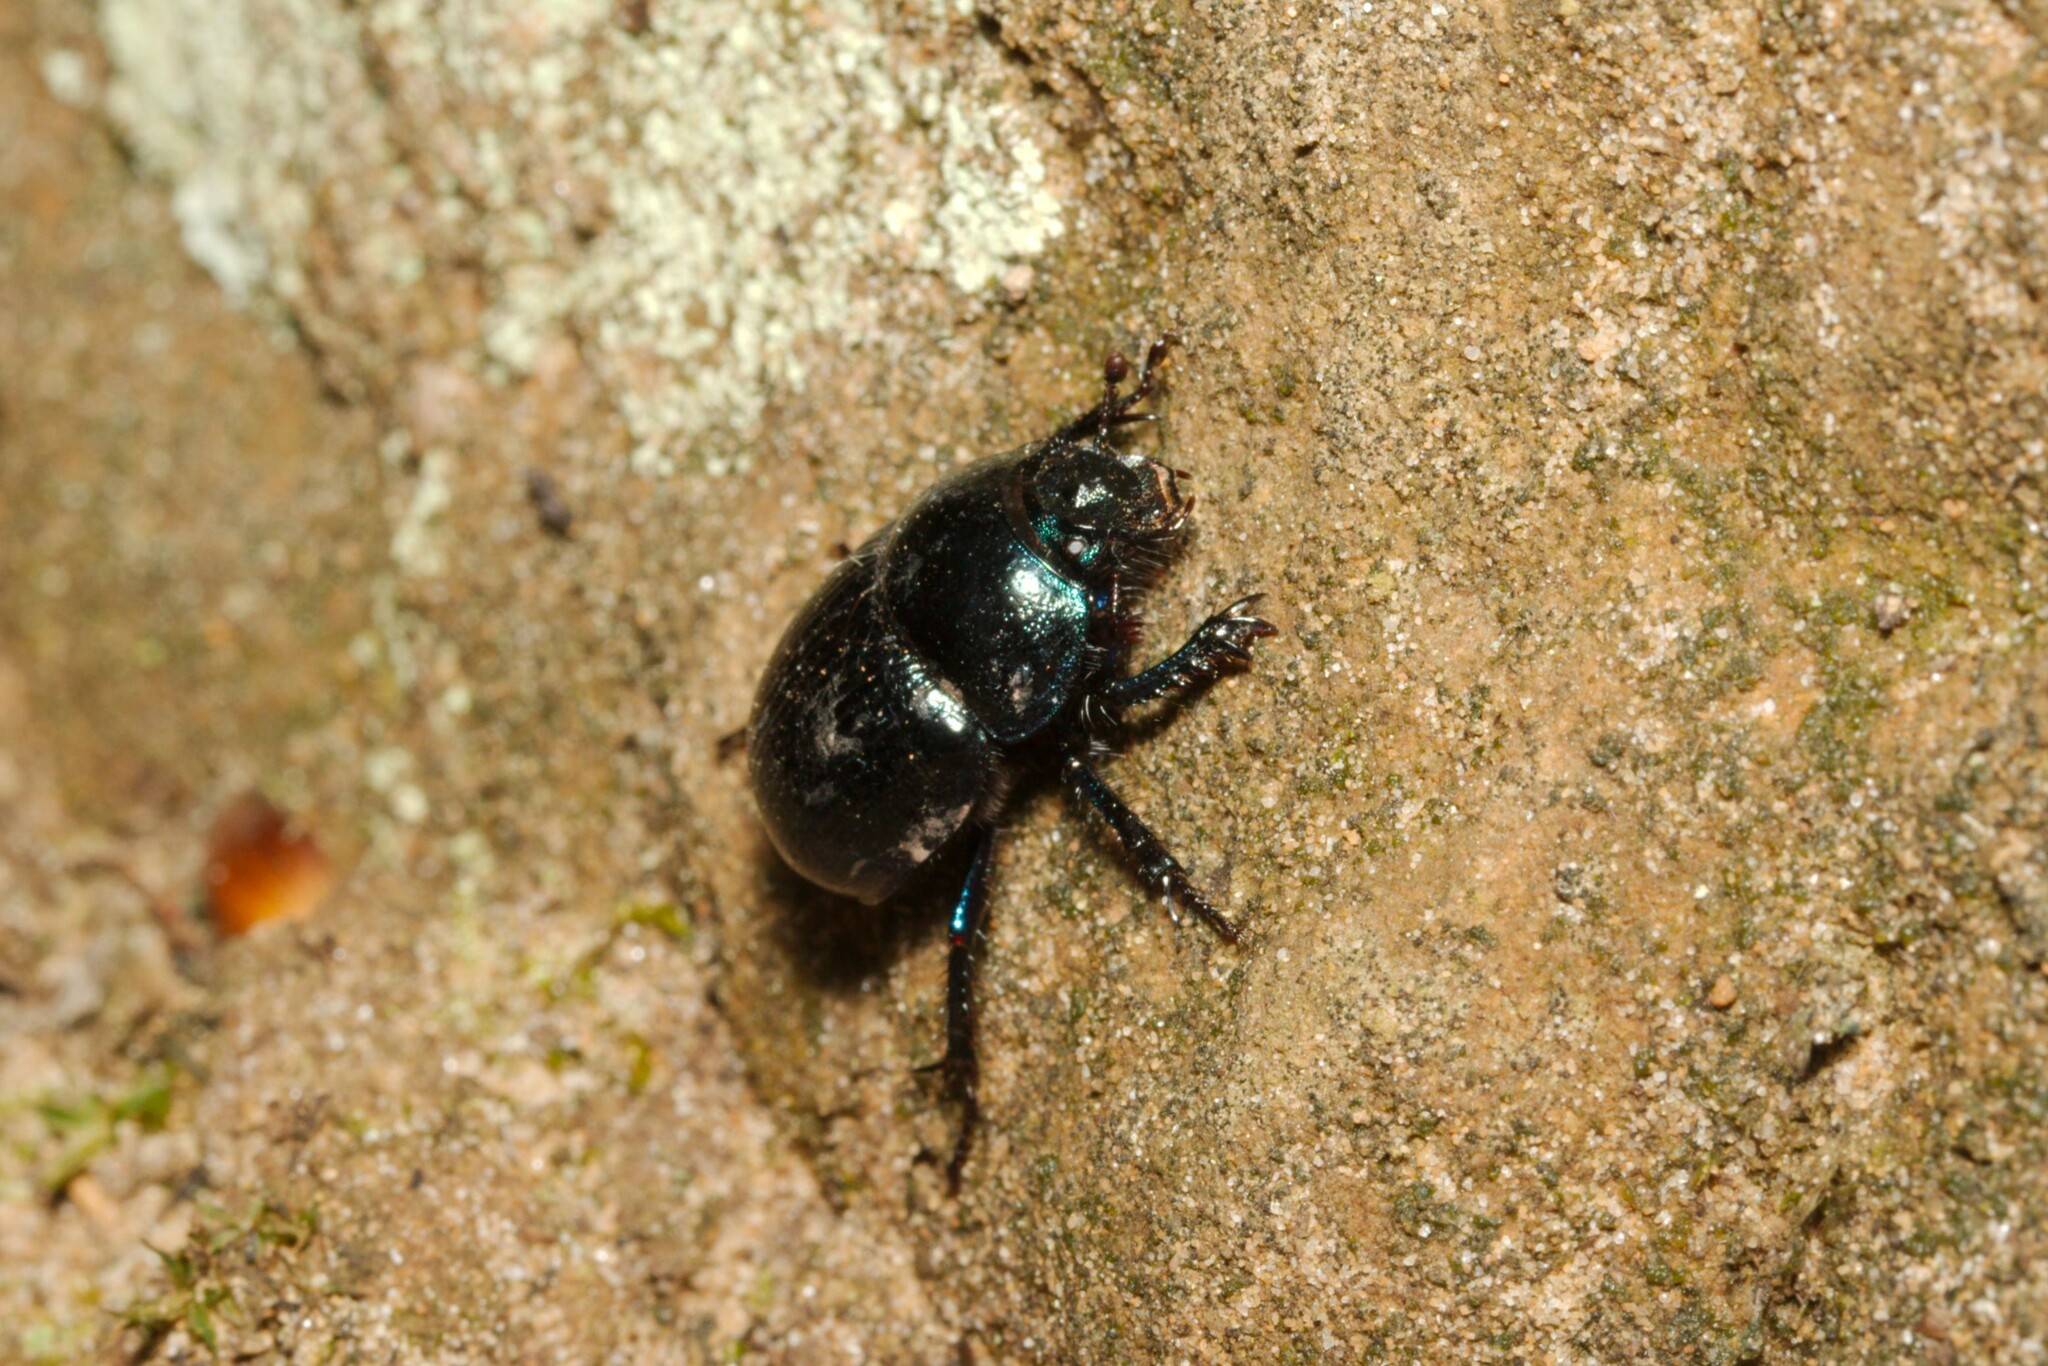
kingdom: Animalia
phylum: Arthropoda
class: Insecta
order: Coleoptera
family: Geotrupidae
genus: Anoplotrupes
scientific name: Anoplotrupes stercorosus
